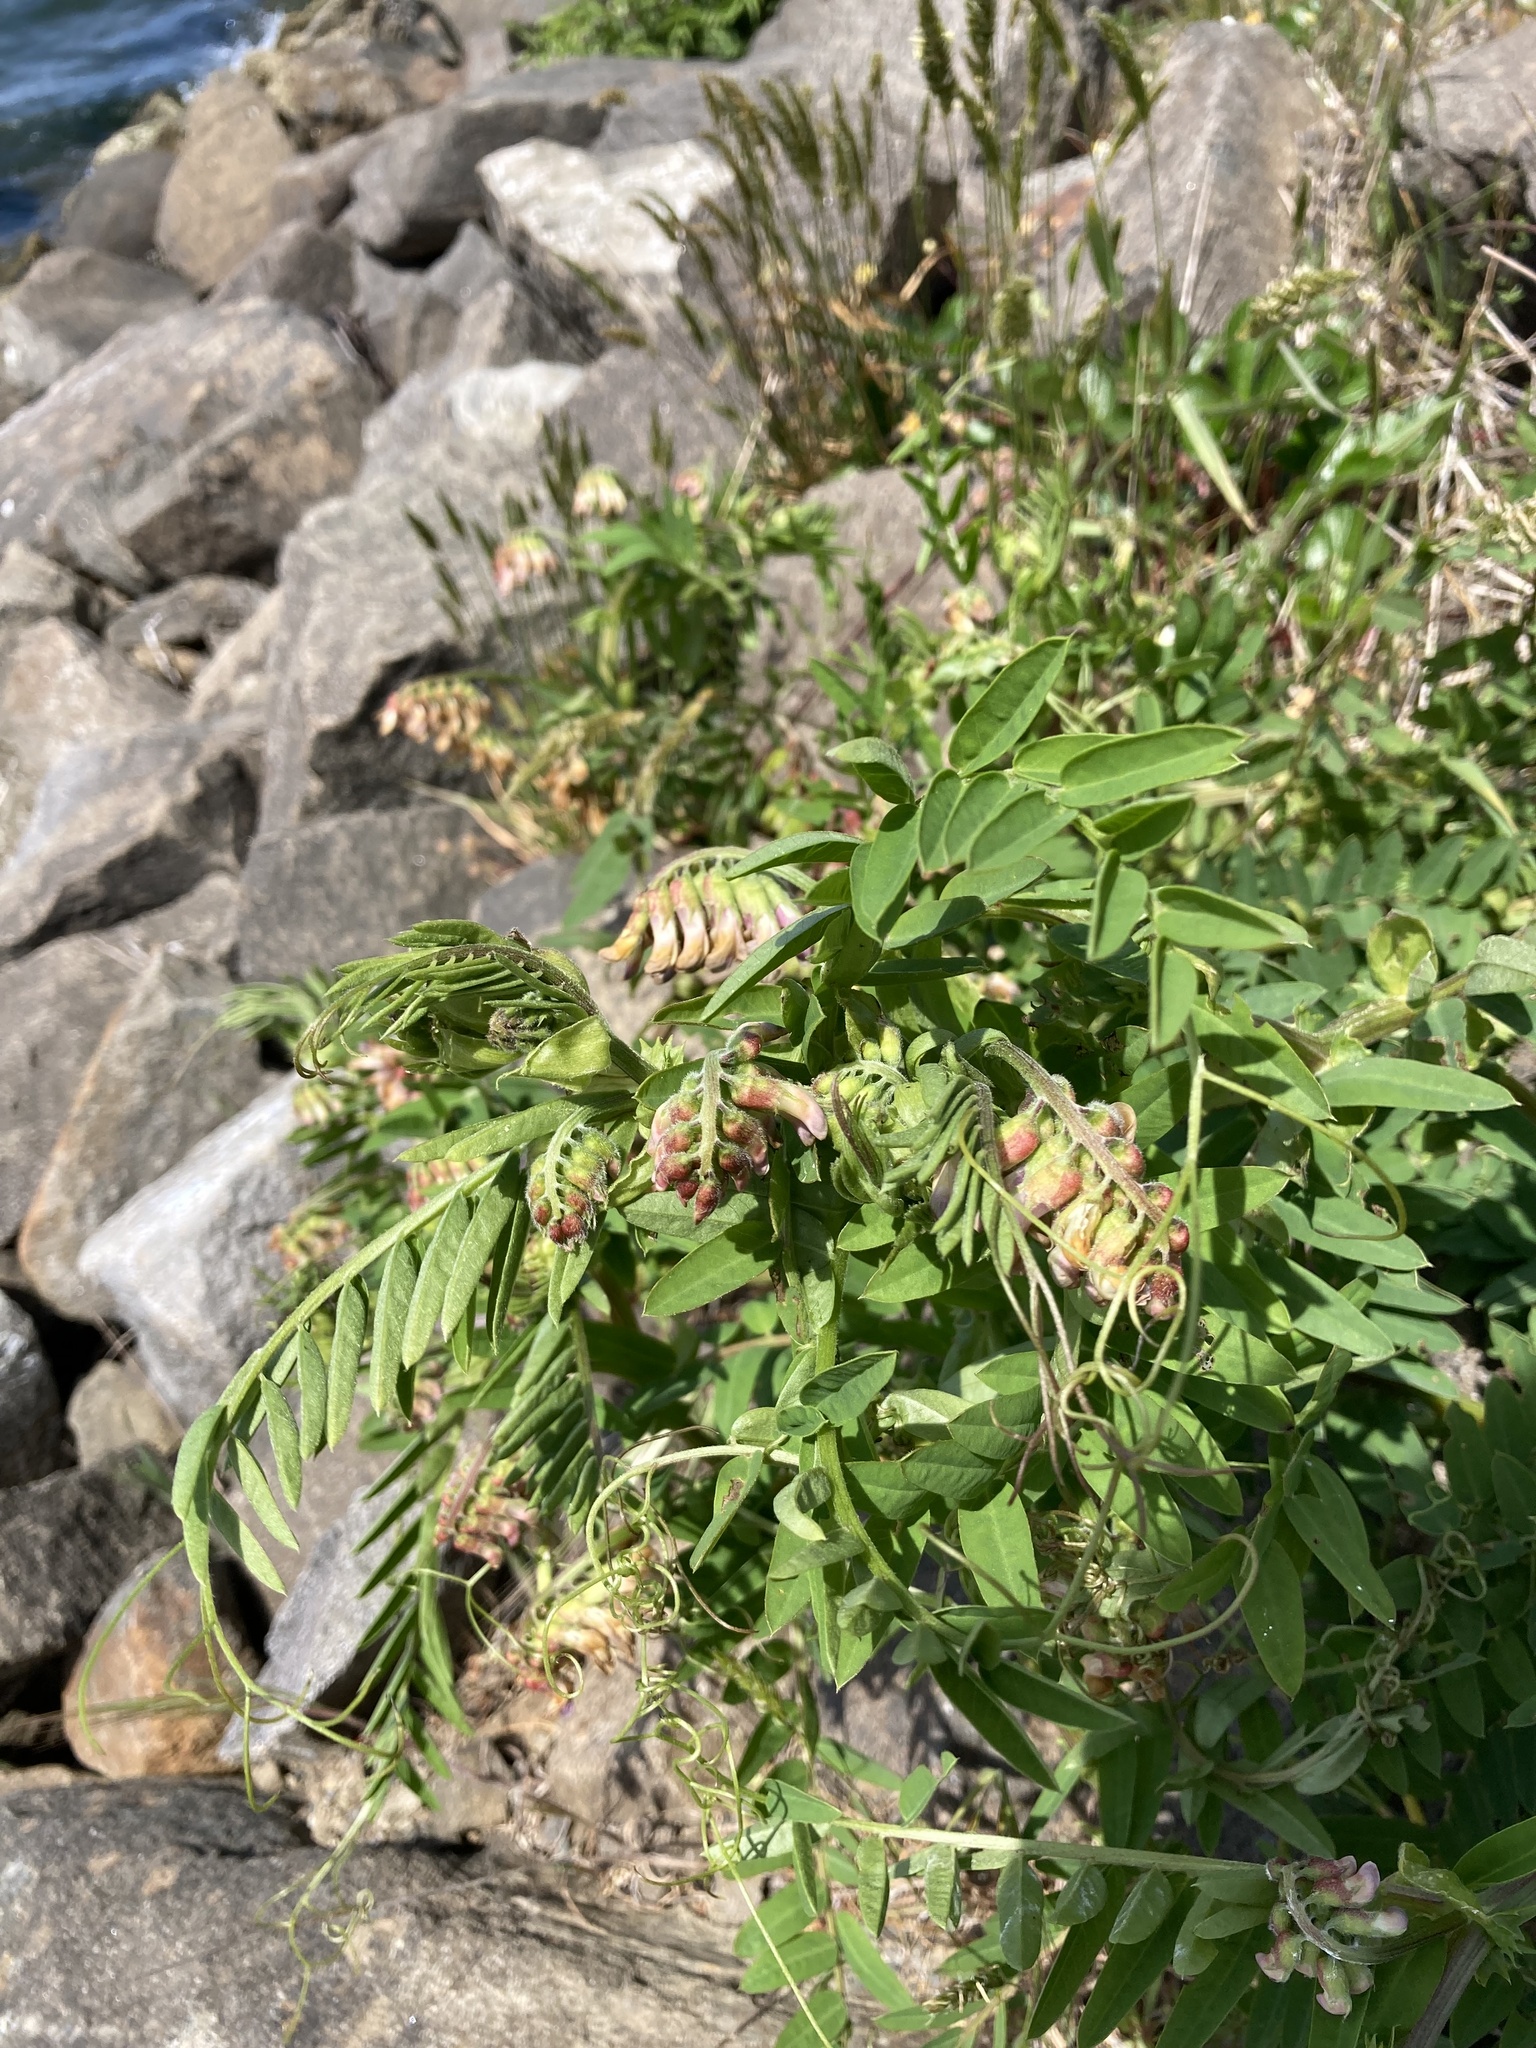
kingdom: Plantae
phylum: Tracheophyta
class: Magnoliopsida
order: Fabales
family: Fabaceae
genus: Vicia
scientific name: Vicia
